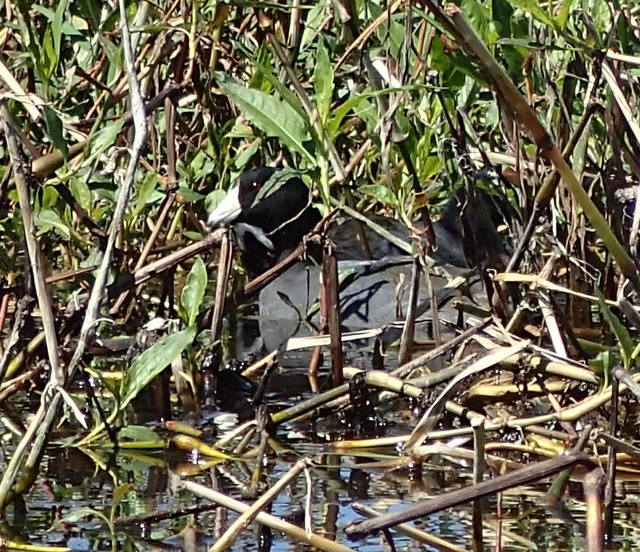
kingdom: Animalia
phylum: Chordata
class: Aves
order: Gruiformes
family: Rallidae
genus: Fulica
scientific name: Fulica americana
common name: American coot
